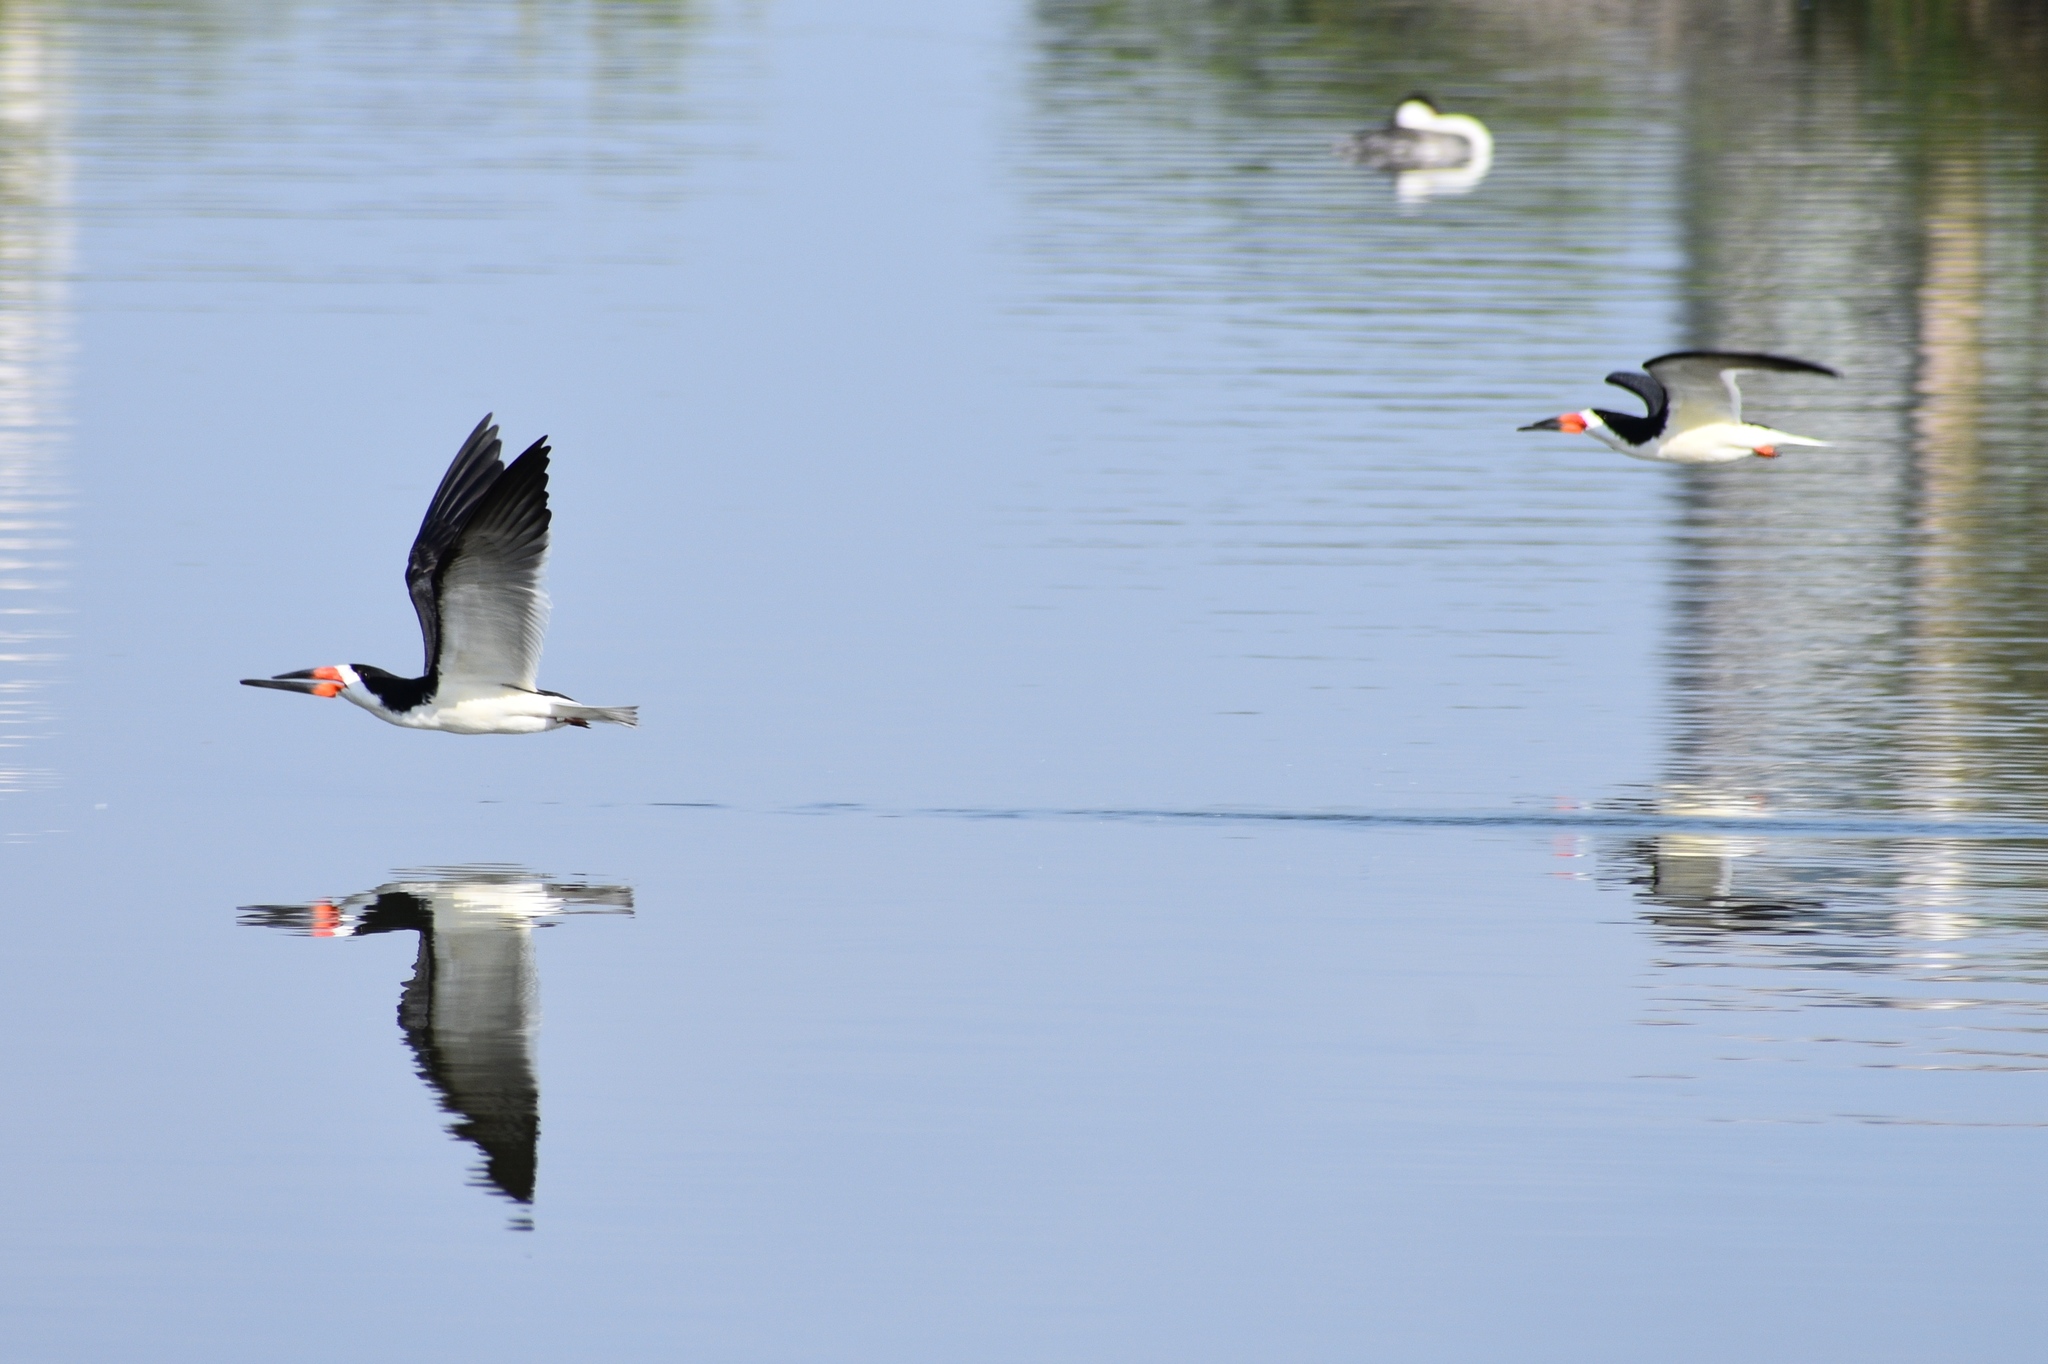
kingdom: Animalia
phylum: Chordata
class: Aves
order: Charadriiformes
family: Laridae
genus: Rynchops
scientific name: Rynchops niger
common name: Black skimmer
